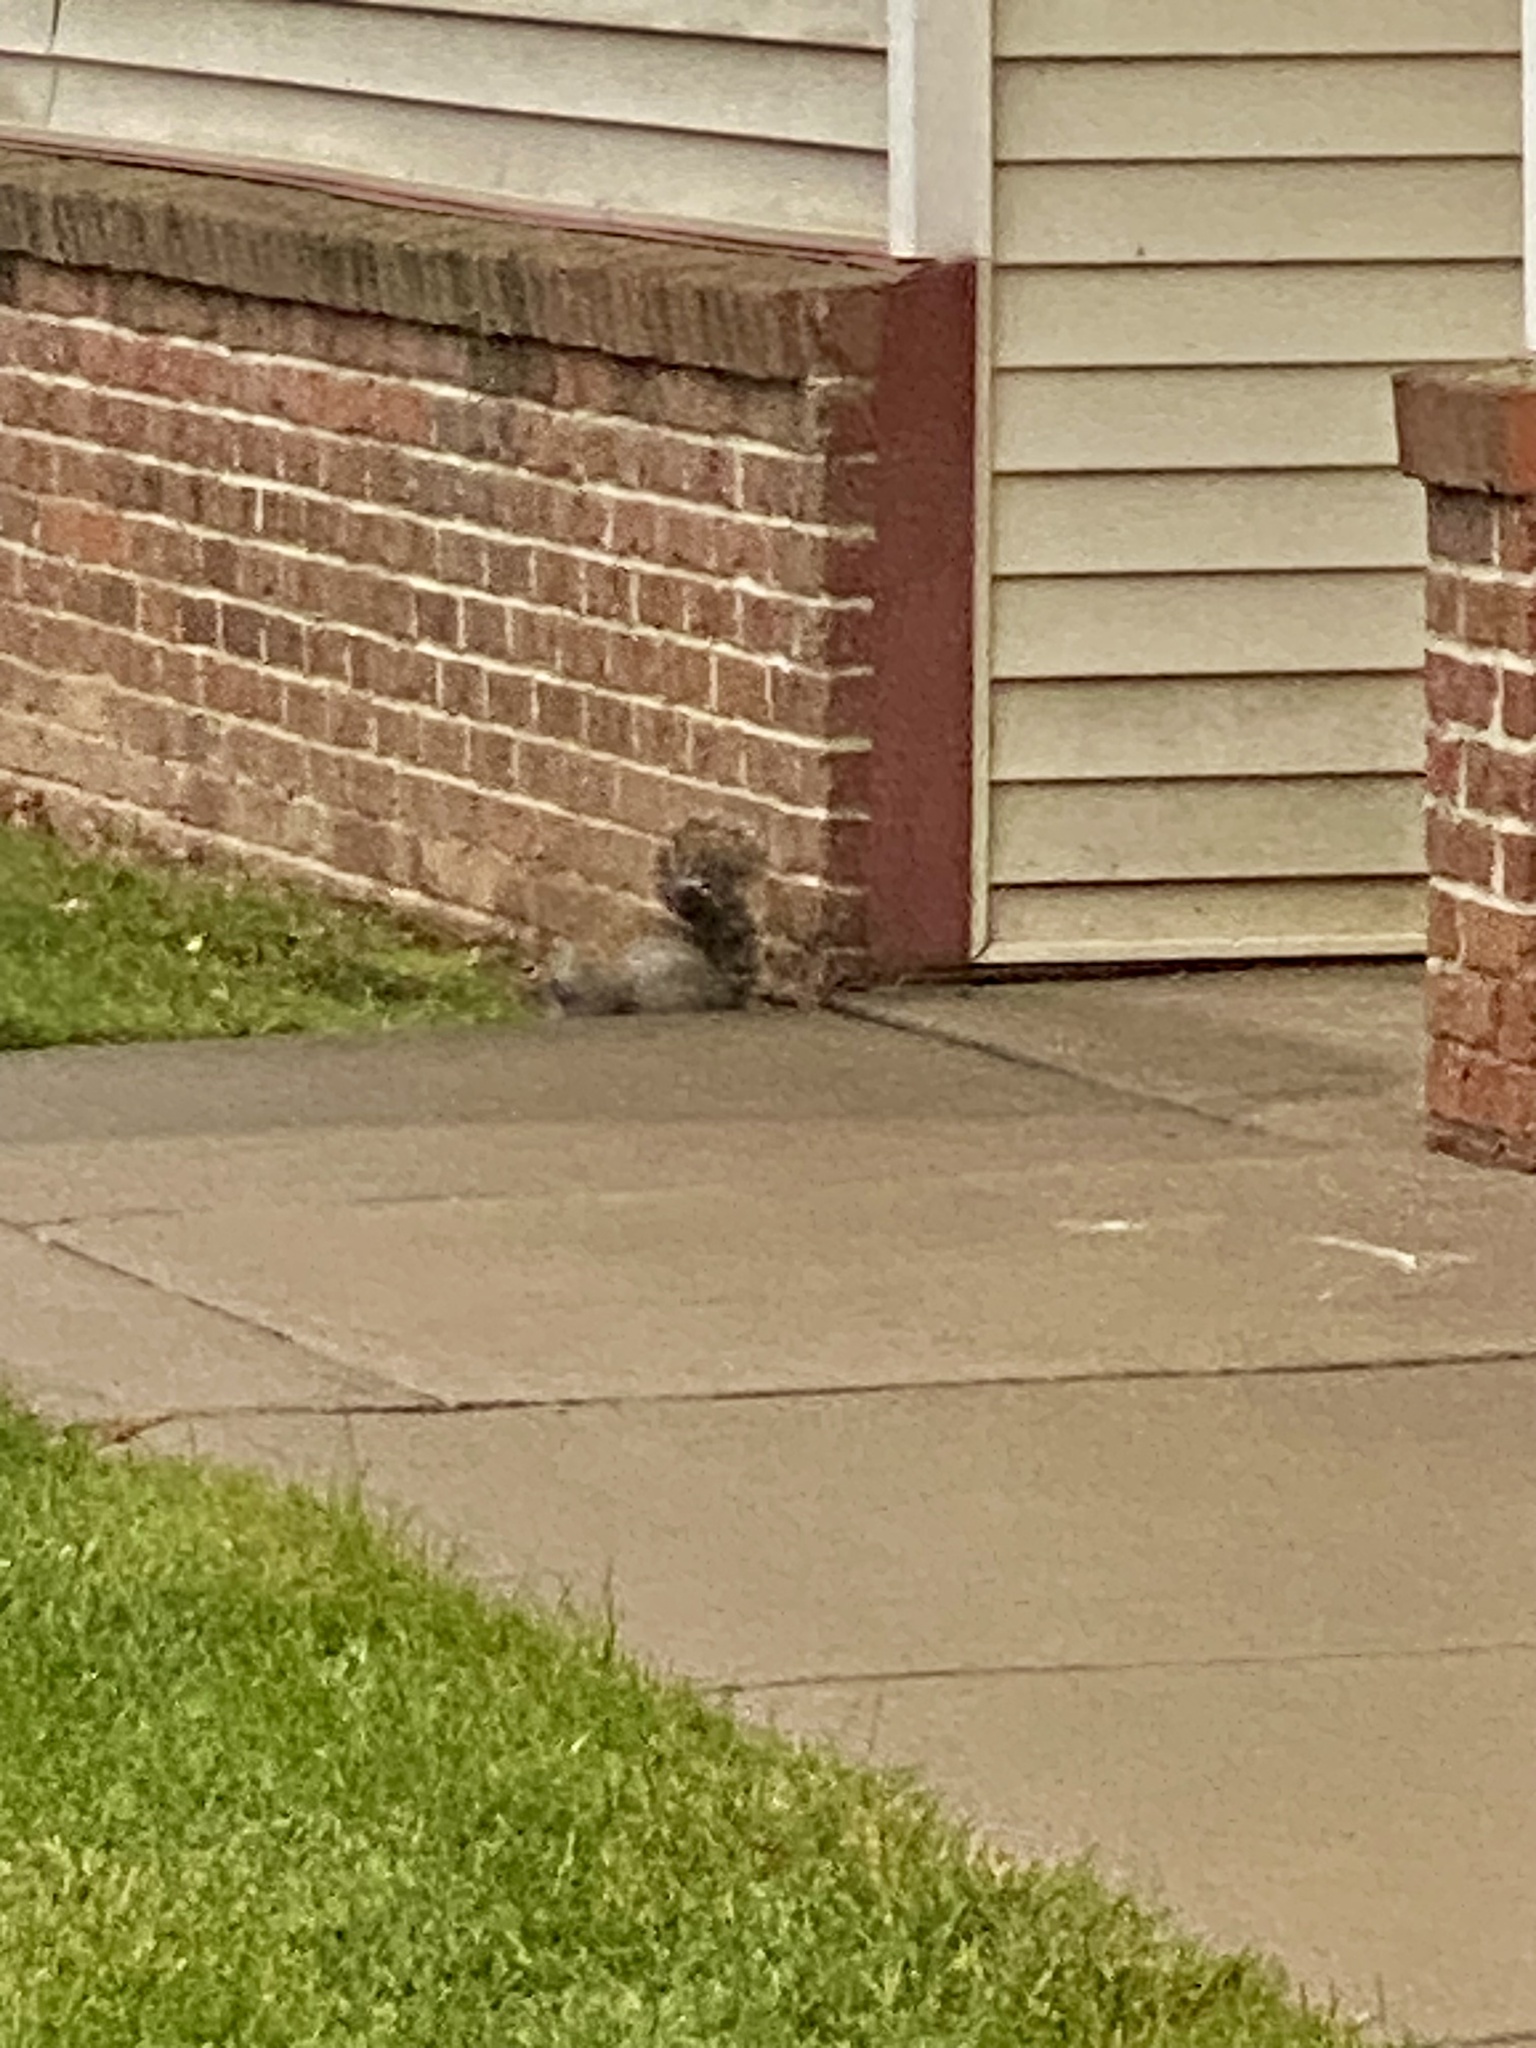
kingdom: Animalia
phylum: Chordata
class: Mammalia
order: Rodentia
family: Sciuridae
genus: Sciurus
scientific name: Sciurus carolinensis
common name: Eastern gray squirrel
